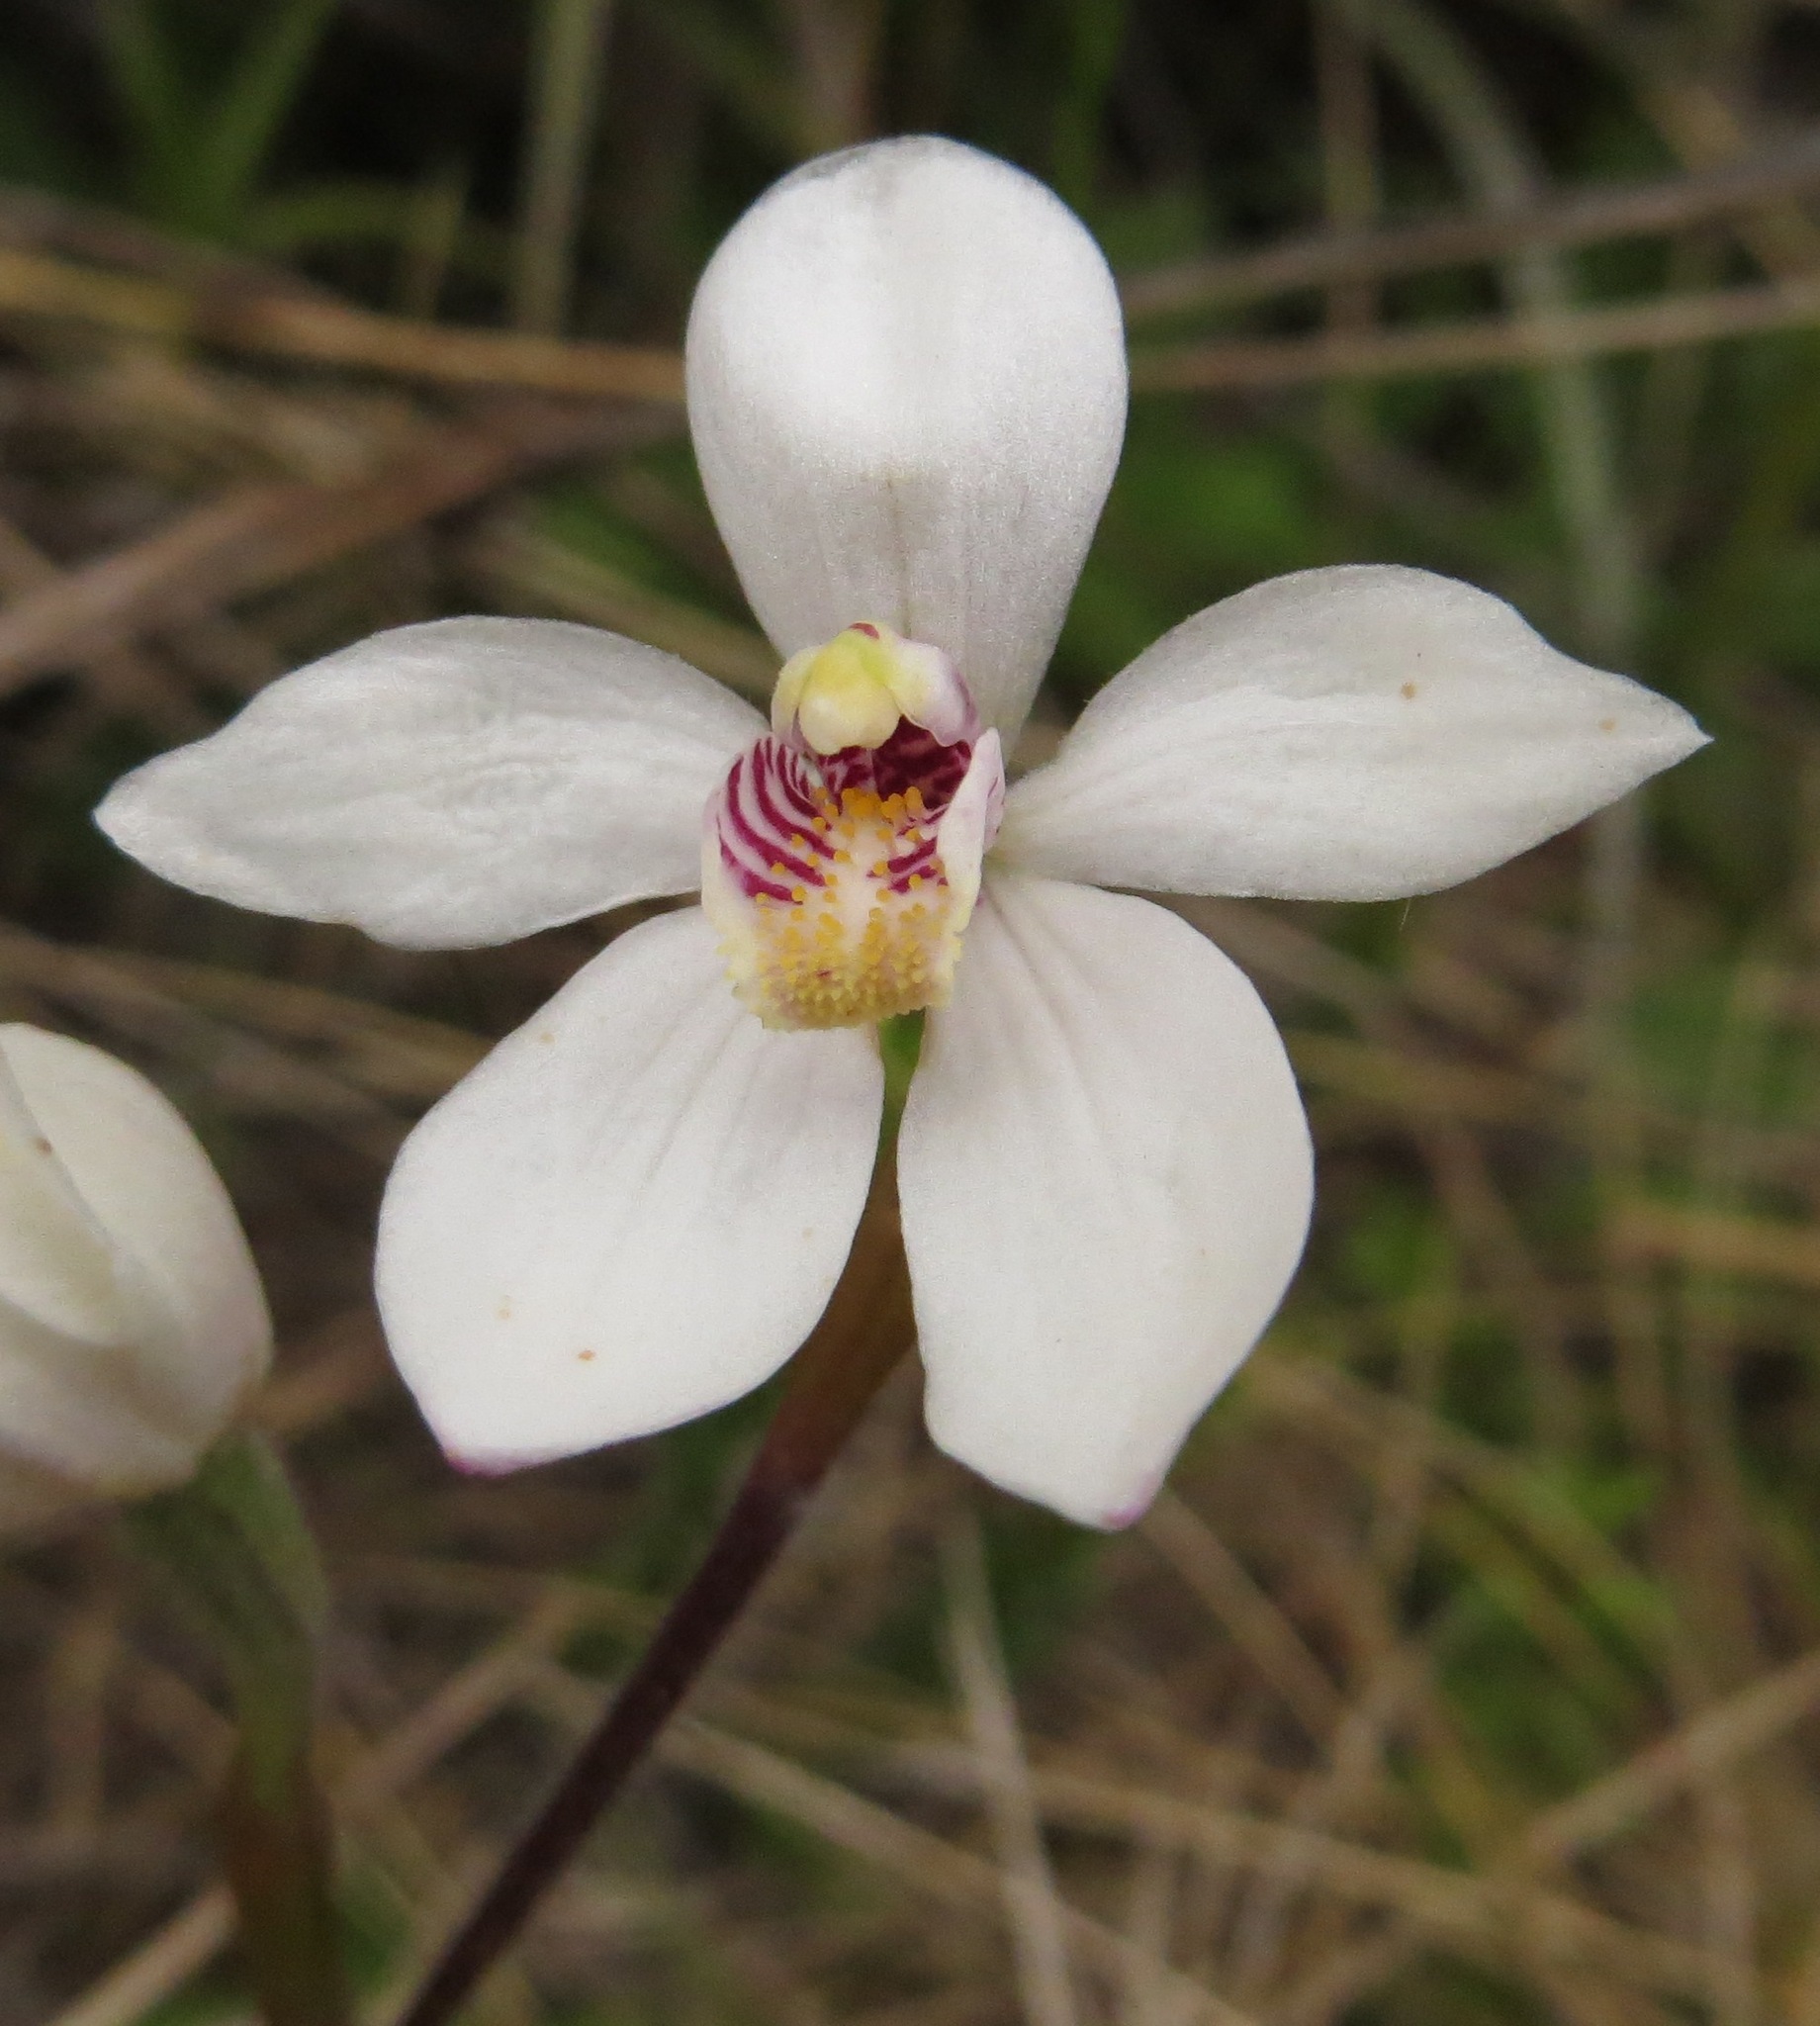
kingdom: Plantae
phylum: Tracheophyta
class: Liliopsida
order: Asparagales
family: Orchidaceae
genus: Caladenia
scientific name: Caladenia lyallii
